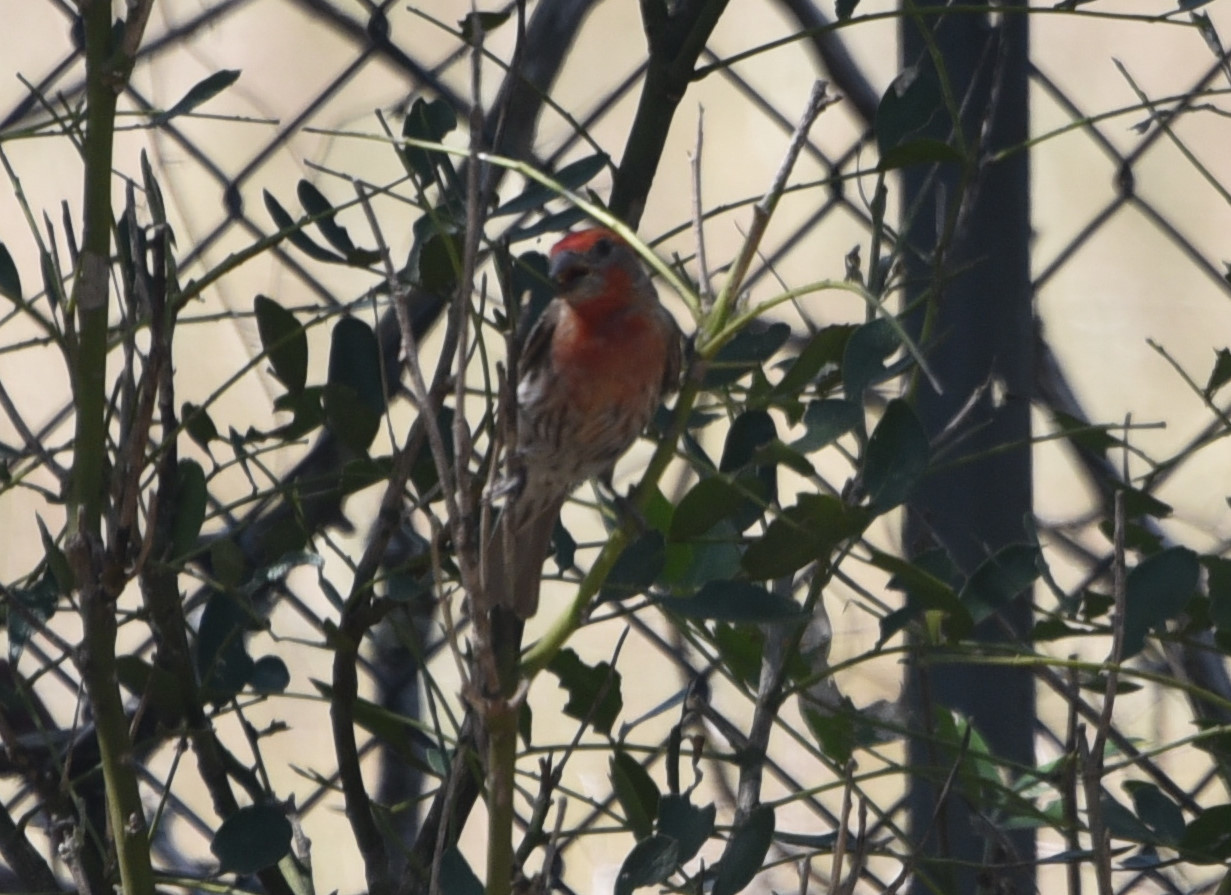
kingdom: Animalia
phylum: Chordata
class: Aves
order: Passeriformes
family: Fringillidae
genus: Haemorhous
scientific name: Haemorhous mexicanus
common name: House finch
